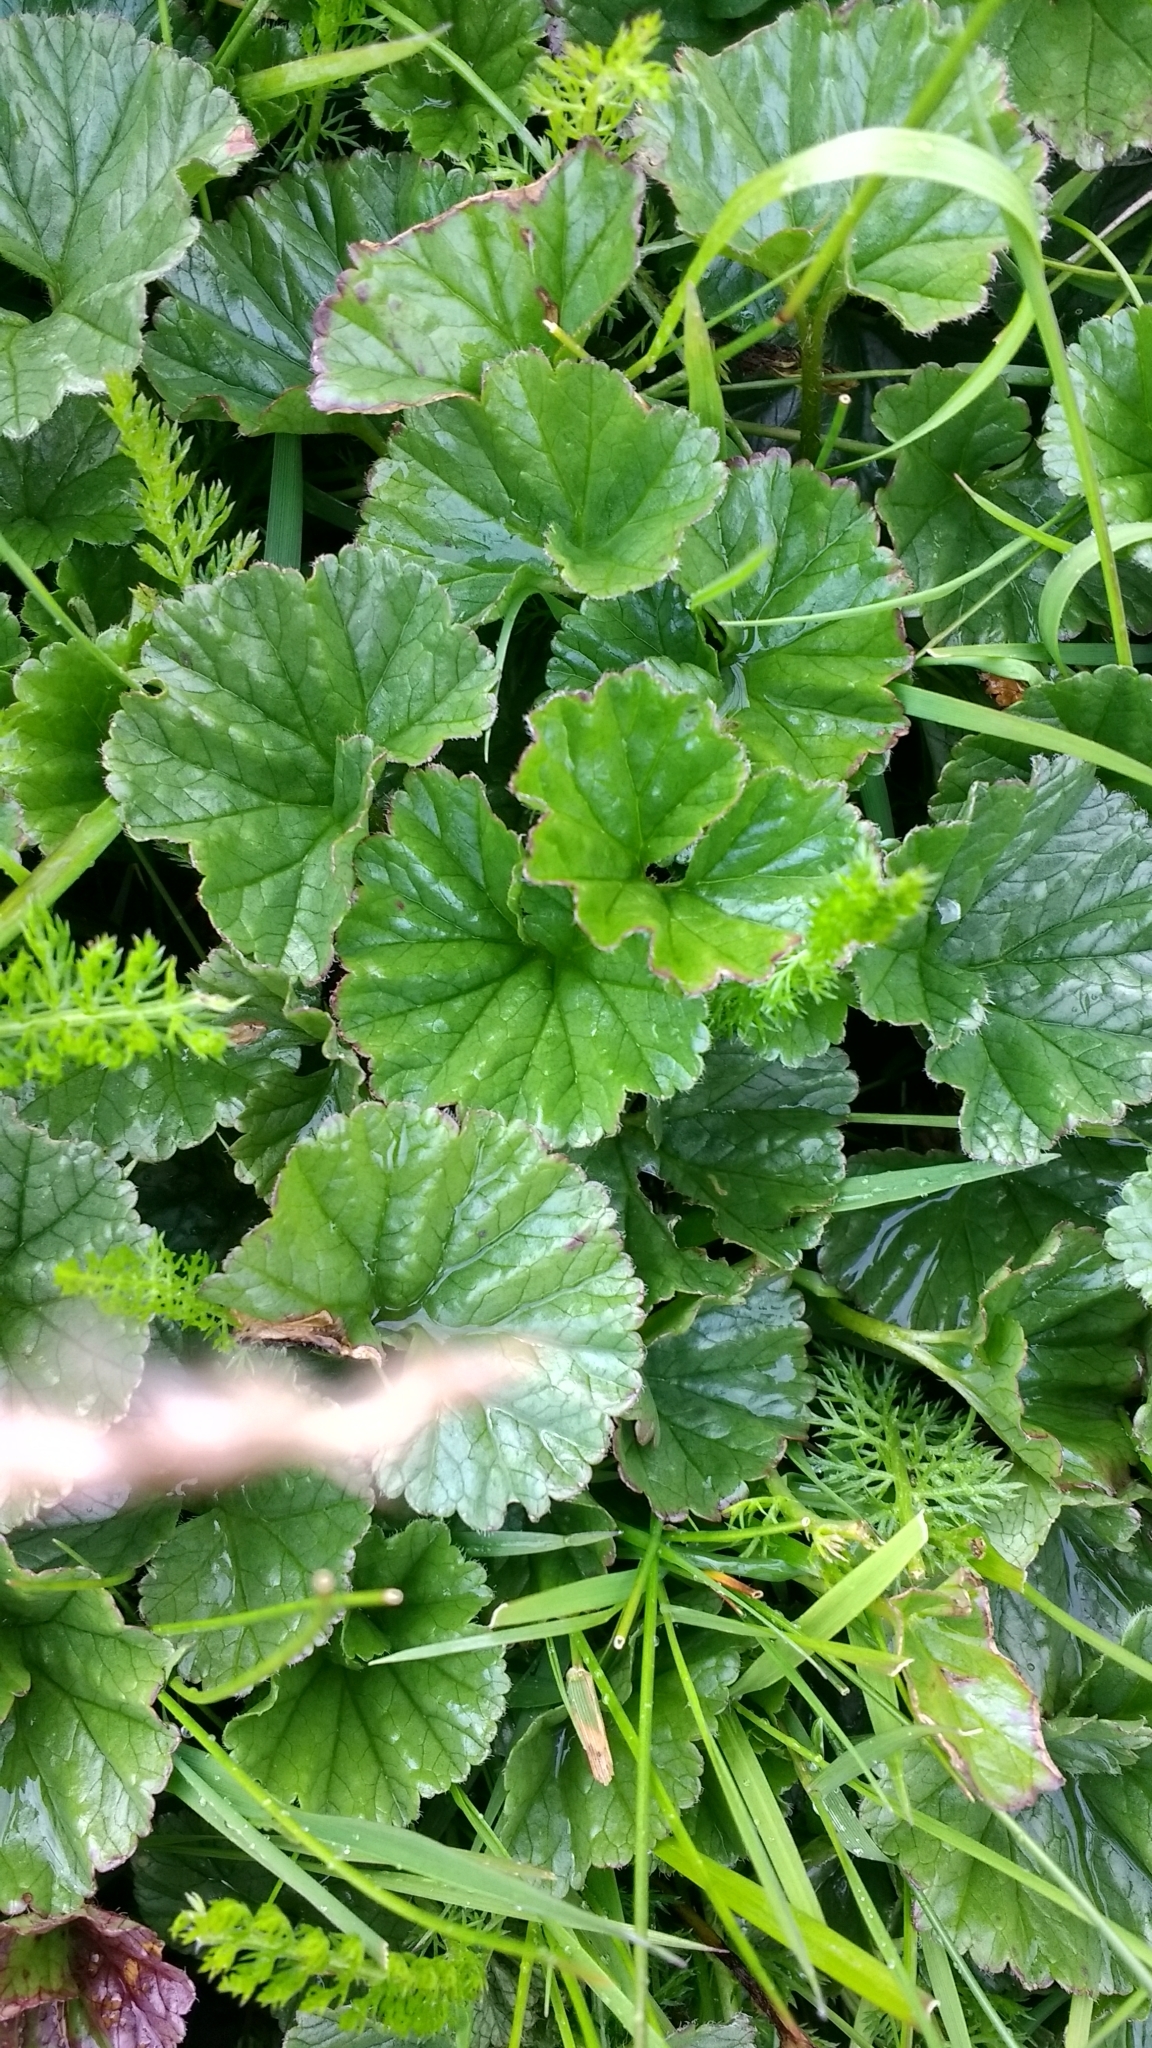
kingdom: Plantae
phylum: Tracheophyta
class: Magnoliopsida
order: Gunnerales
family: Gunneraceae
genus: Gunnera
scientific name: Gunnera magellanica
